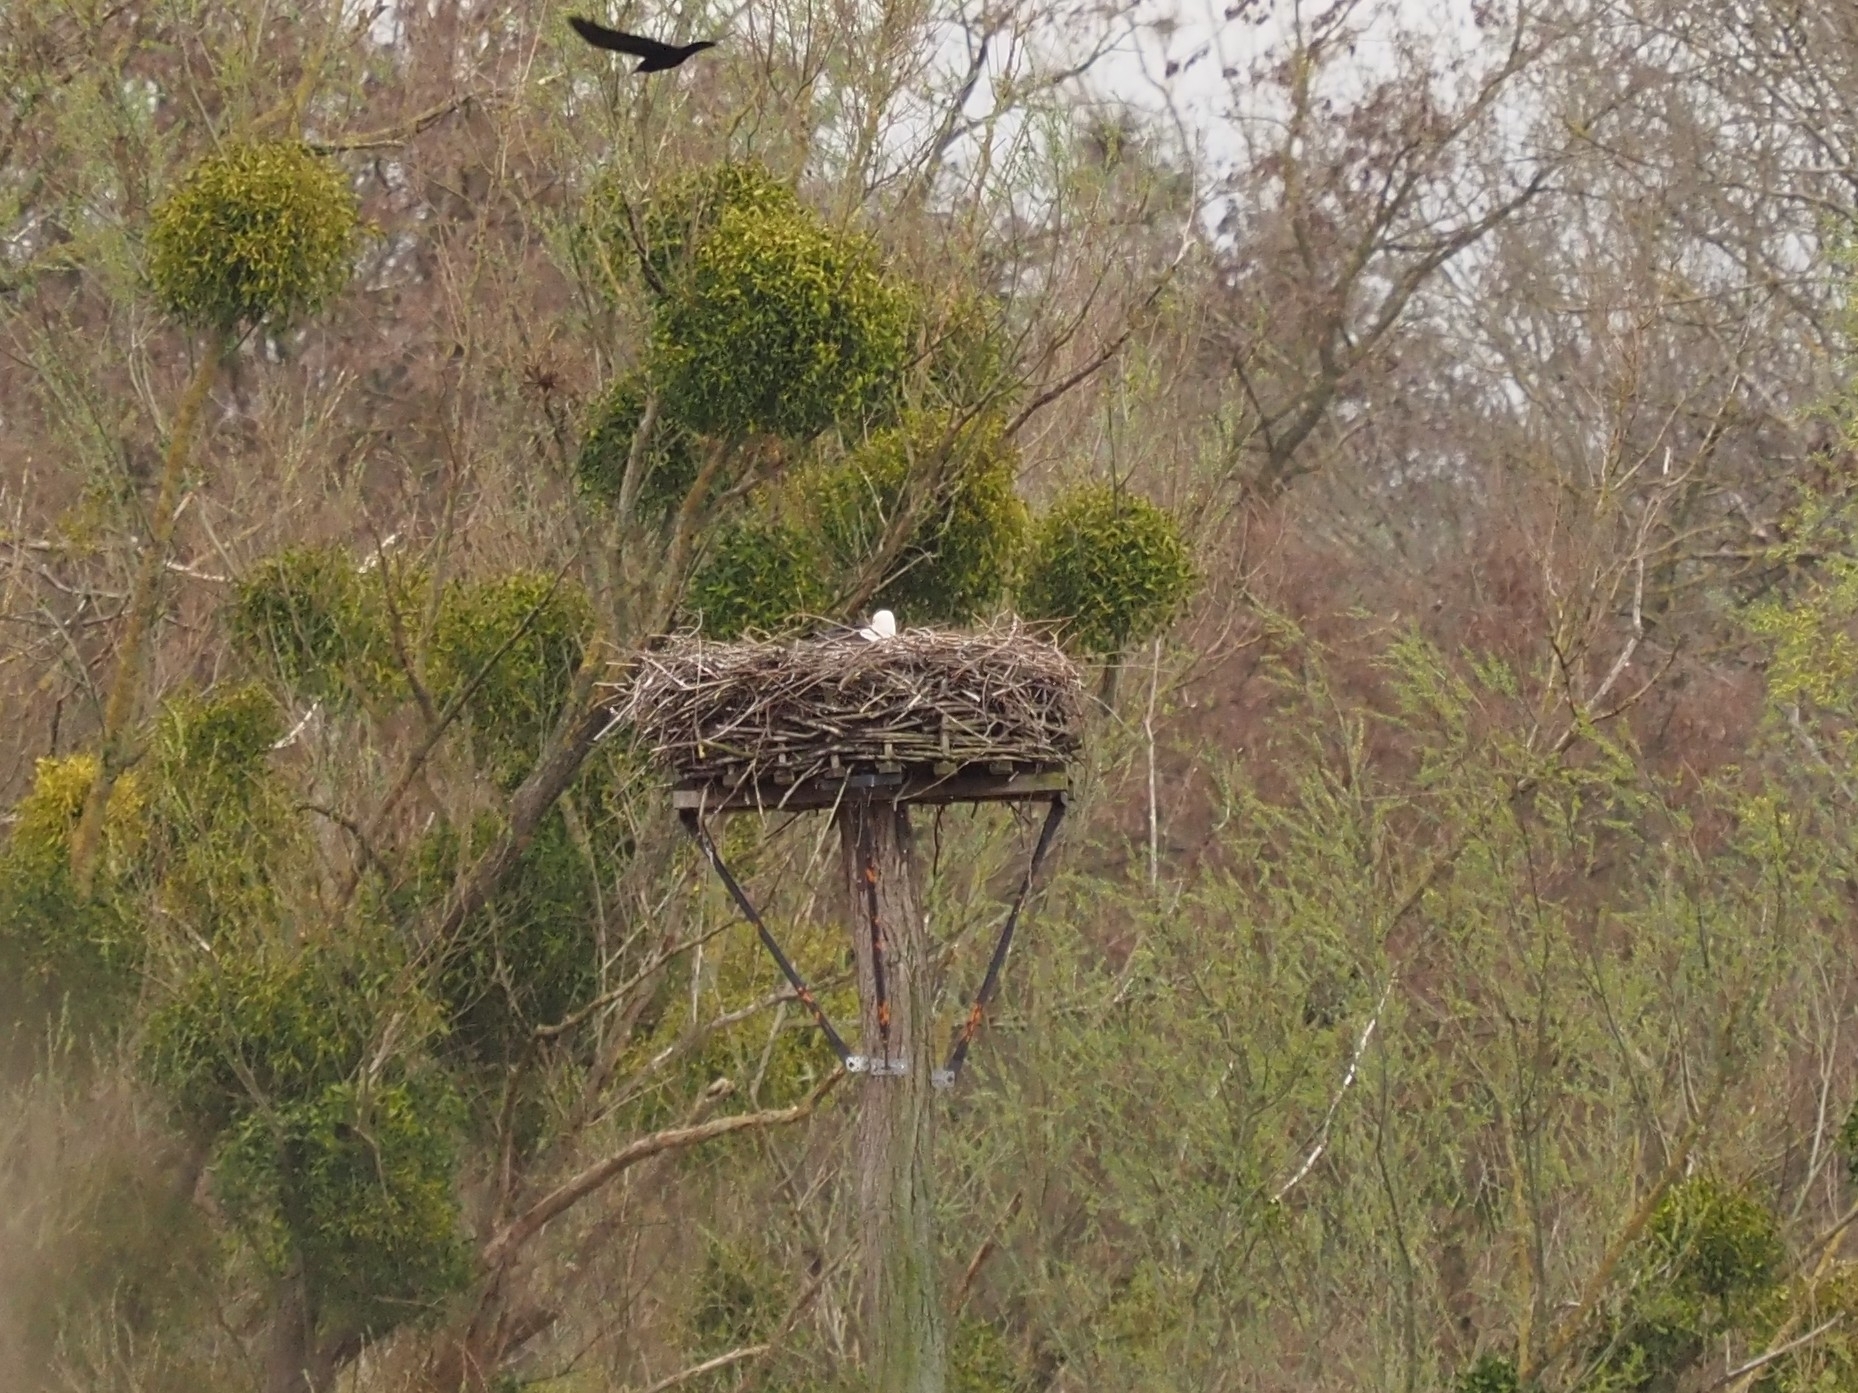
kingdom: Animalia
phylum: Chordata
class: Aves
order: Ciconiiformes
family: Ciconiidae
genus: Ciconia
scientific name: Ciconia ciconia
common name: White stork
